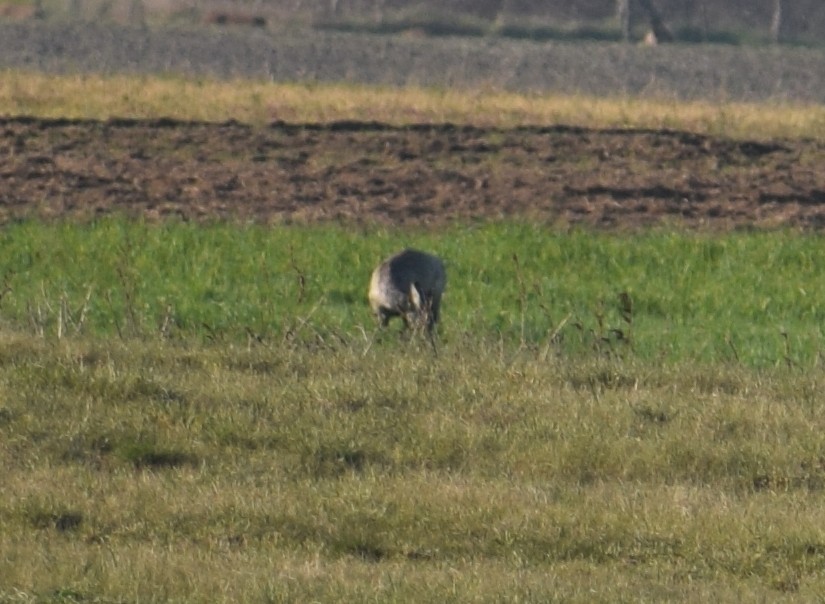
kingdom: Animalia
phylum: Chordata
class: Mammalia
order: Artiodactyla
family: Cervidae
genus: Capreolus
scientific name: Capreolus capreolus
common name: Western roe deer
